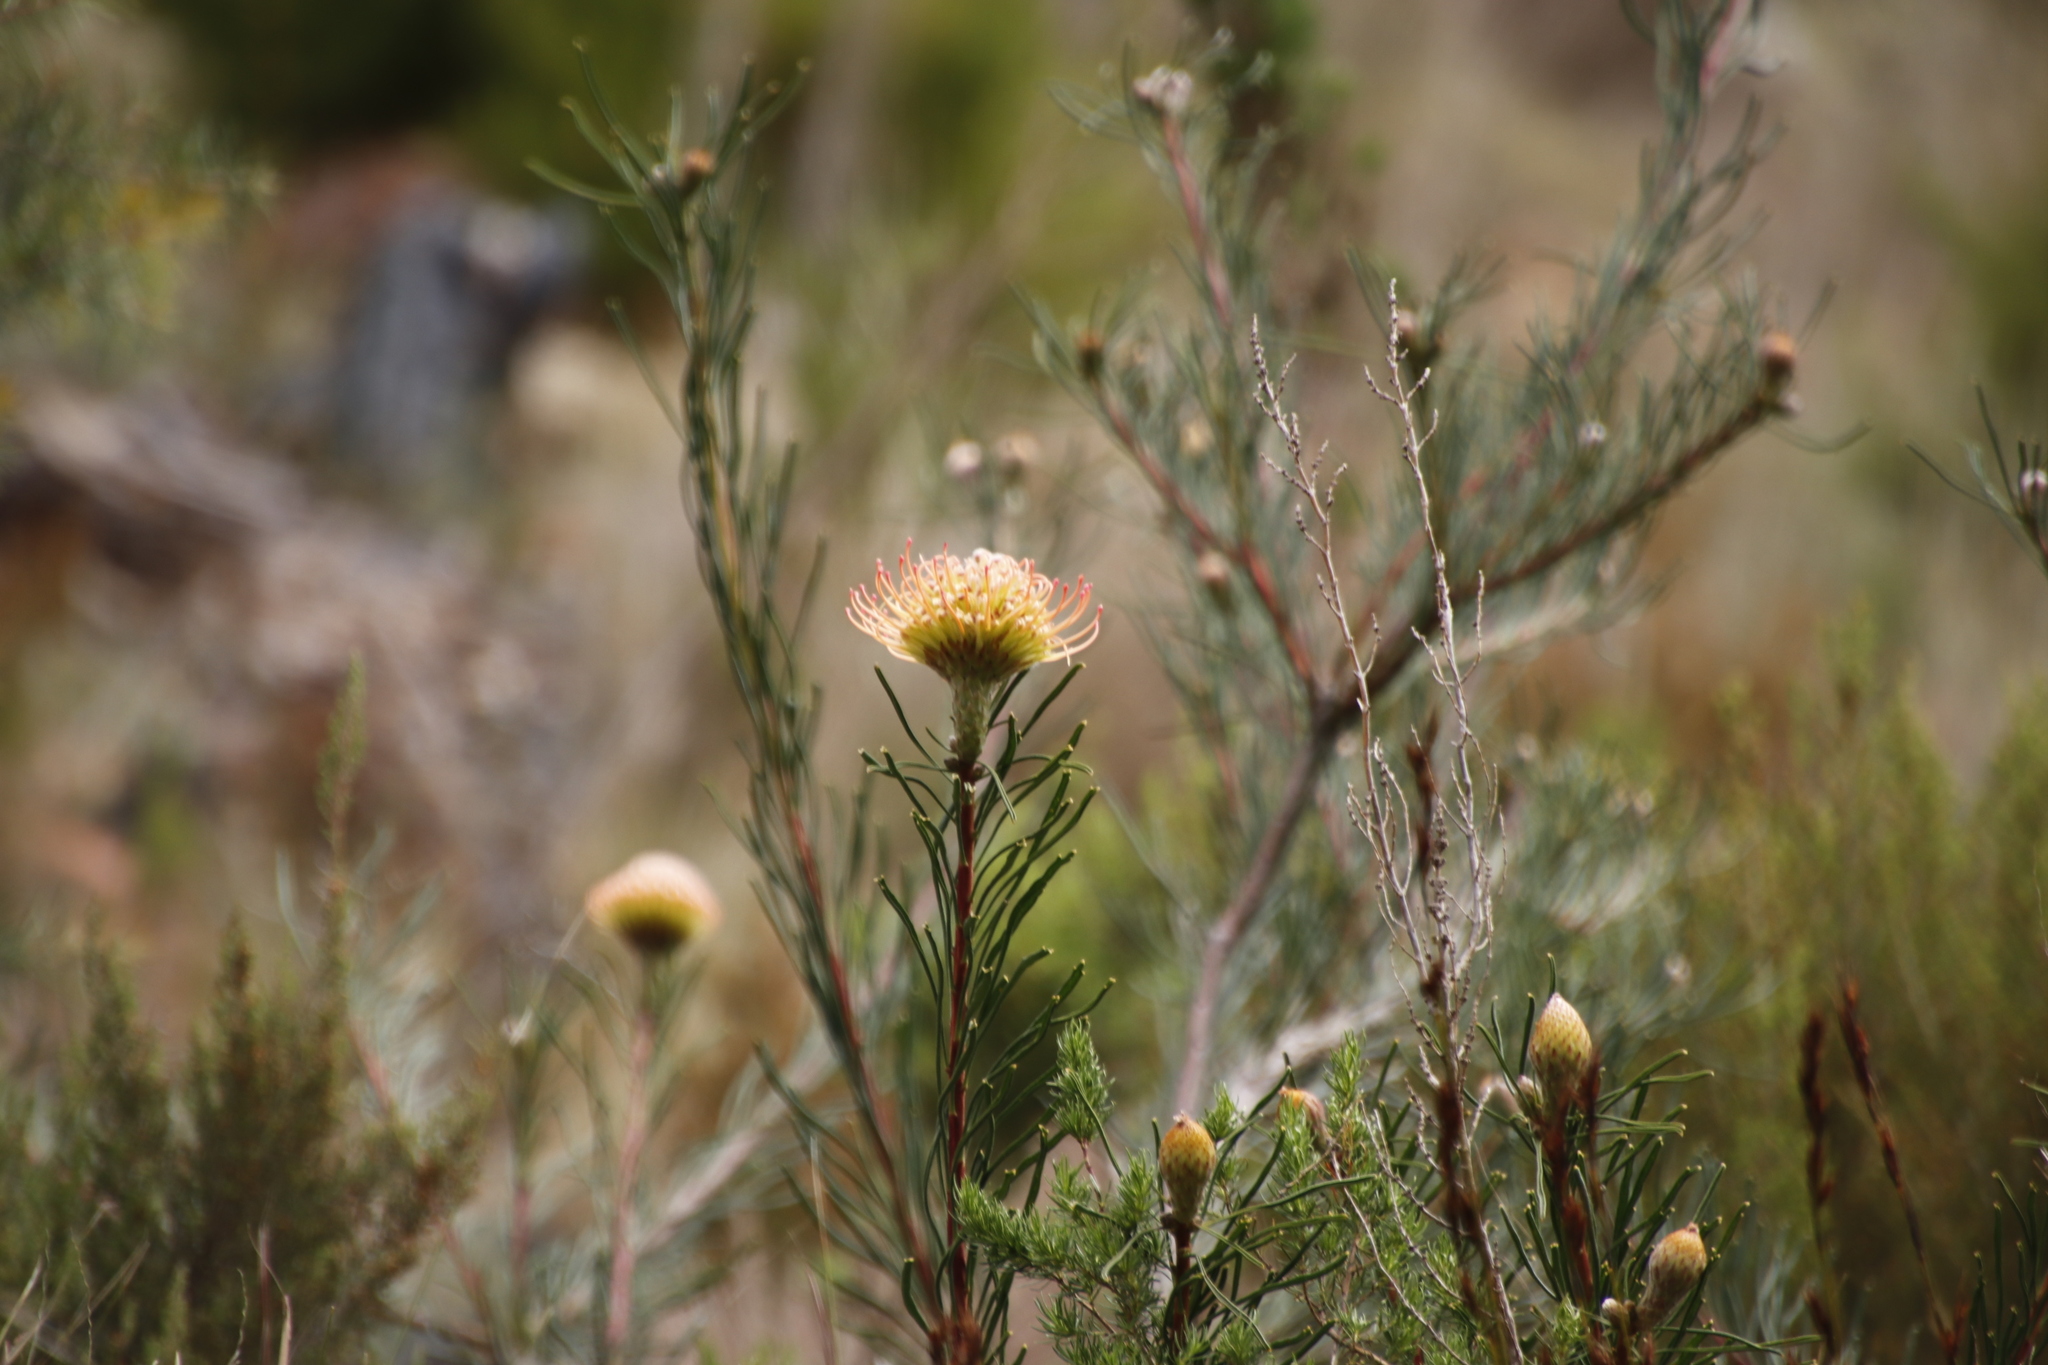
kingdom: Plantae
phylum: Tracheophyta
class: Magnoliopsida
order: Proteales
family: Proteaceae
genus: Leucospermum
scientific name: Leucospermum lineare
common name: Needle-leaf pincushion
